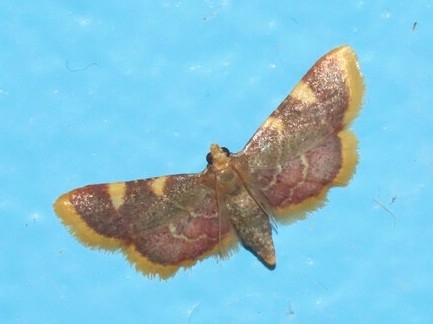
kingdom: Animalia
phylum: Arthropoda
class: Insecta
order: Lepidoptera
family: Pyralidae
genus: Hypsopygia
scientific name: Hypsopygia costalis
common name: Gold triangle
